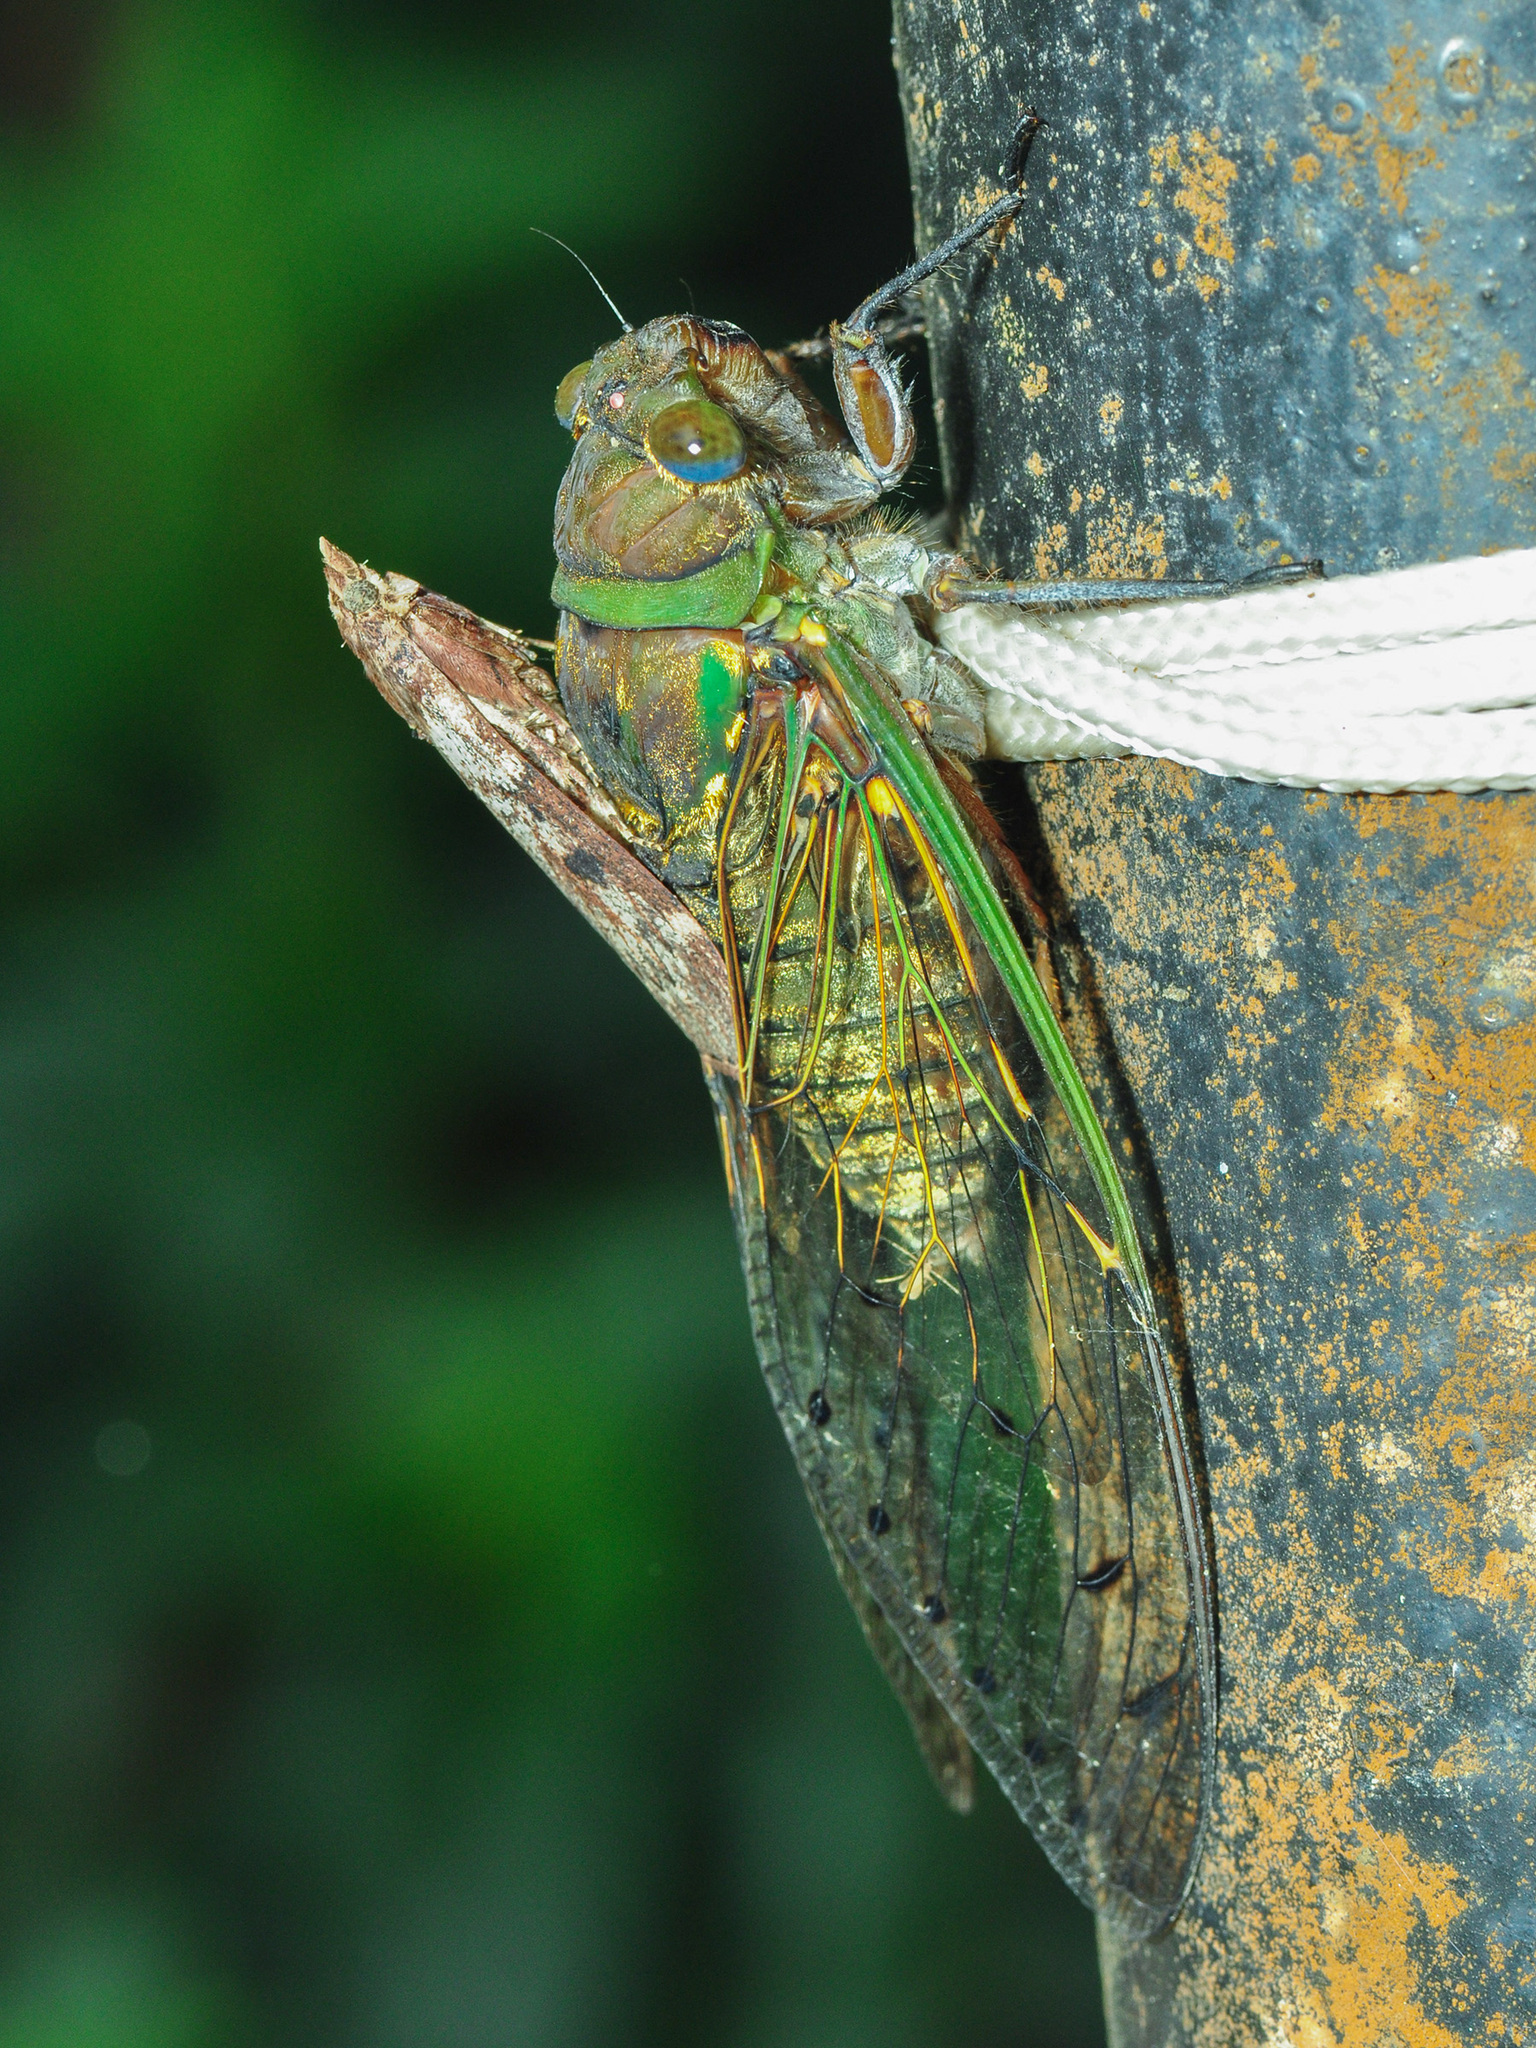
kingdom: Animalia
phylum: Arthropoda
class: Insecta
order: Hemiptera
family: Cicadidae
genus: Unipomponia
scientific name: Unipomponia decem
